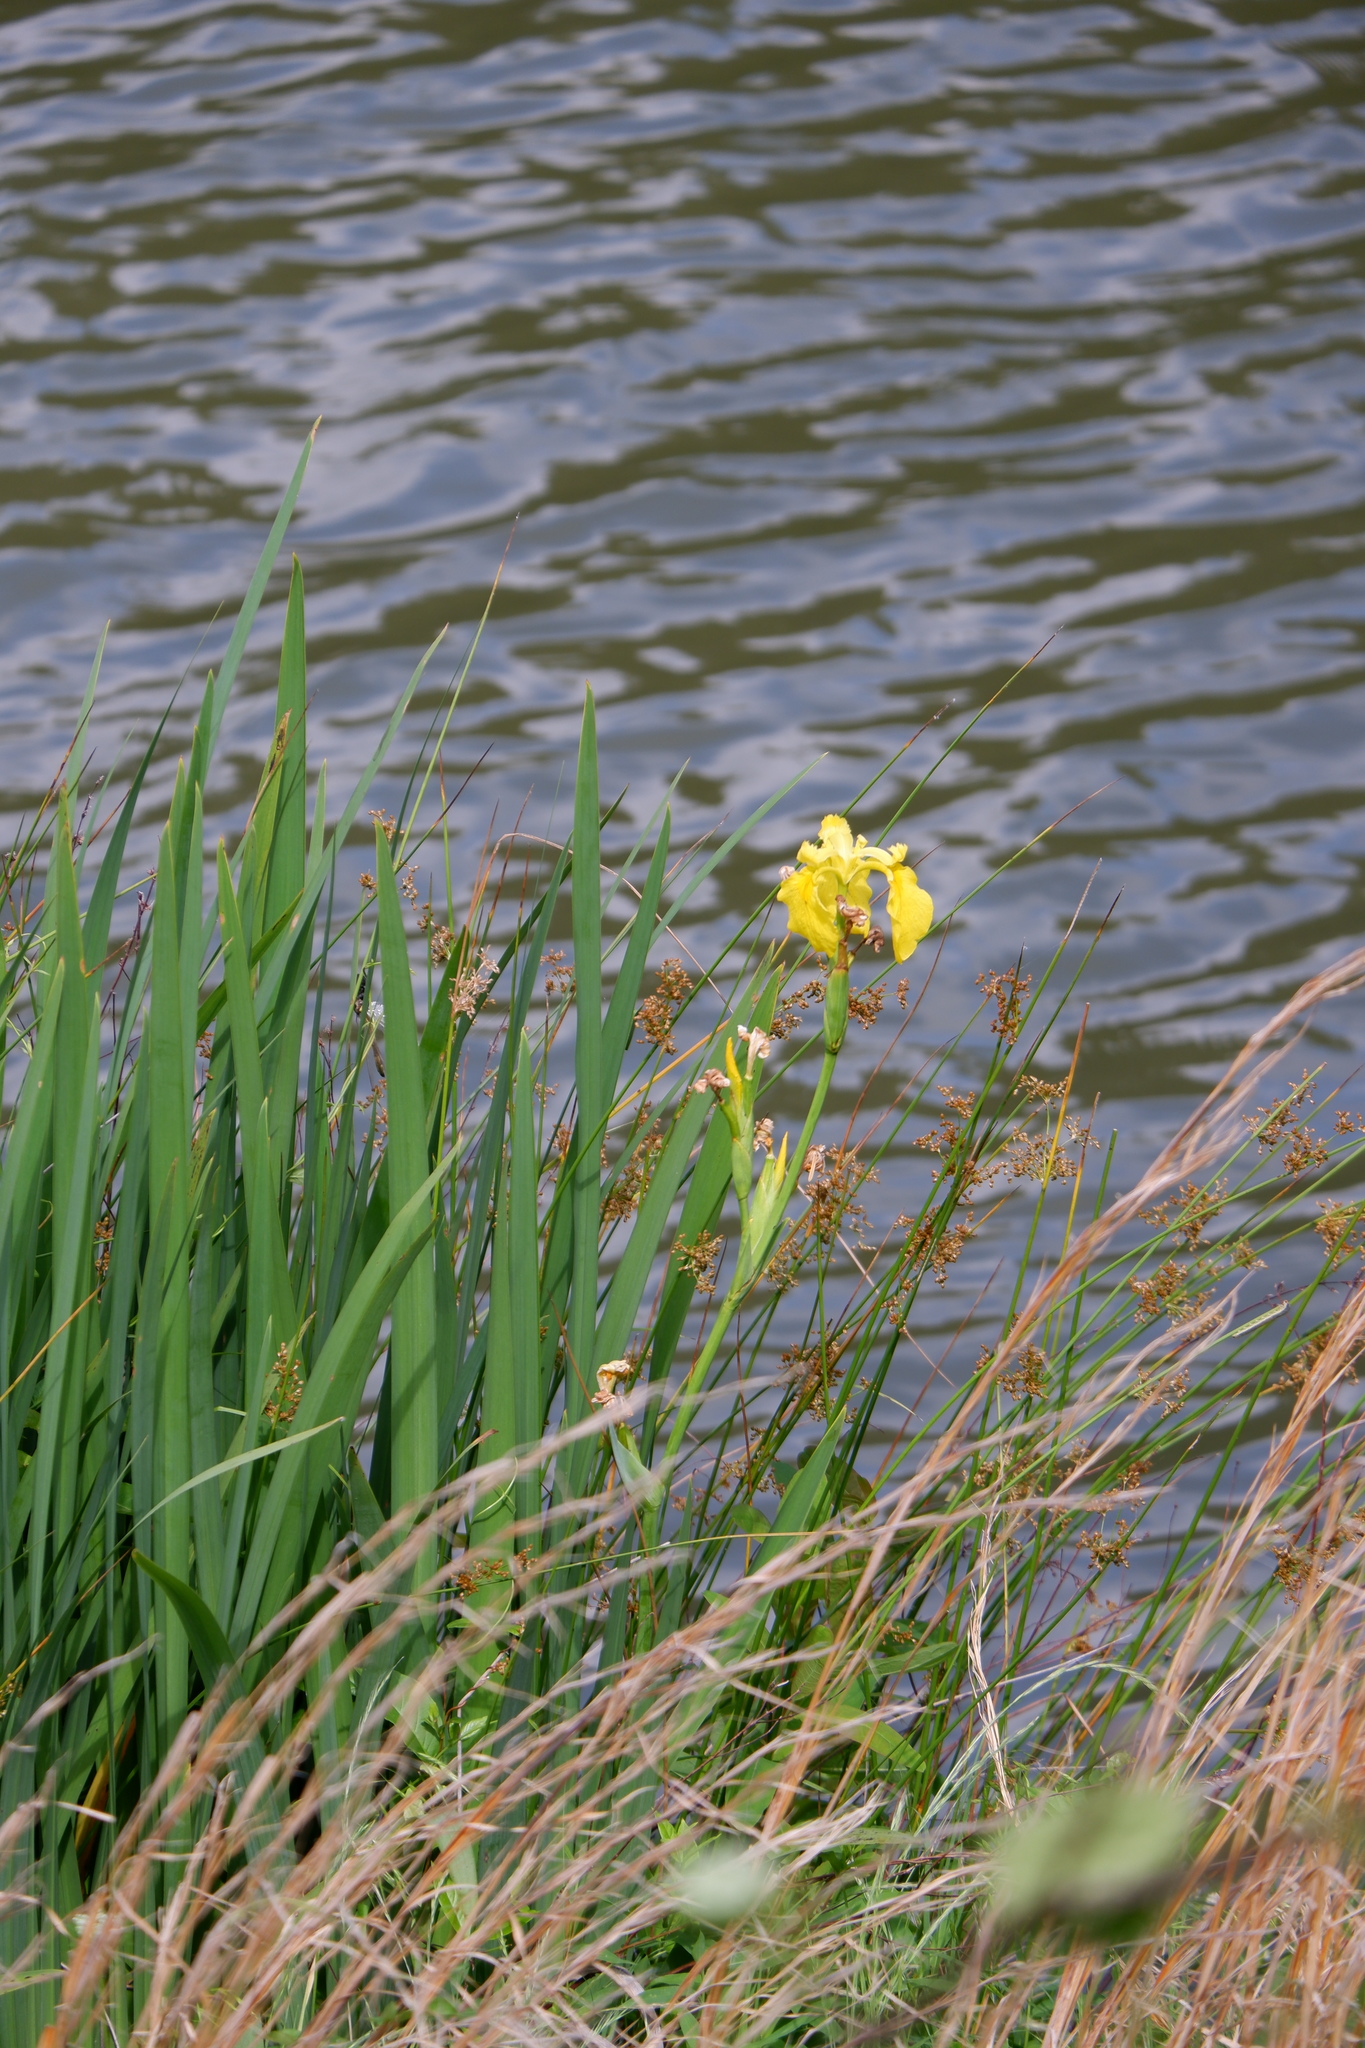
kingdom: Plantae
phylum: Tracheophyta
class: Liliopsida
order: Asparagales
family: Iridaceae
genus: Iris
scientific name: Iris pseudacorus
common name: Yellow flag
